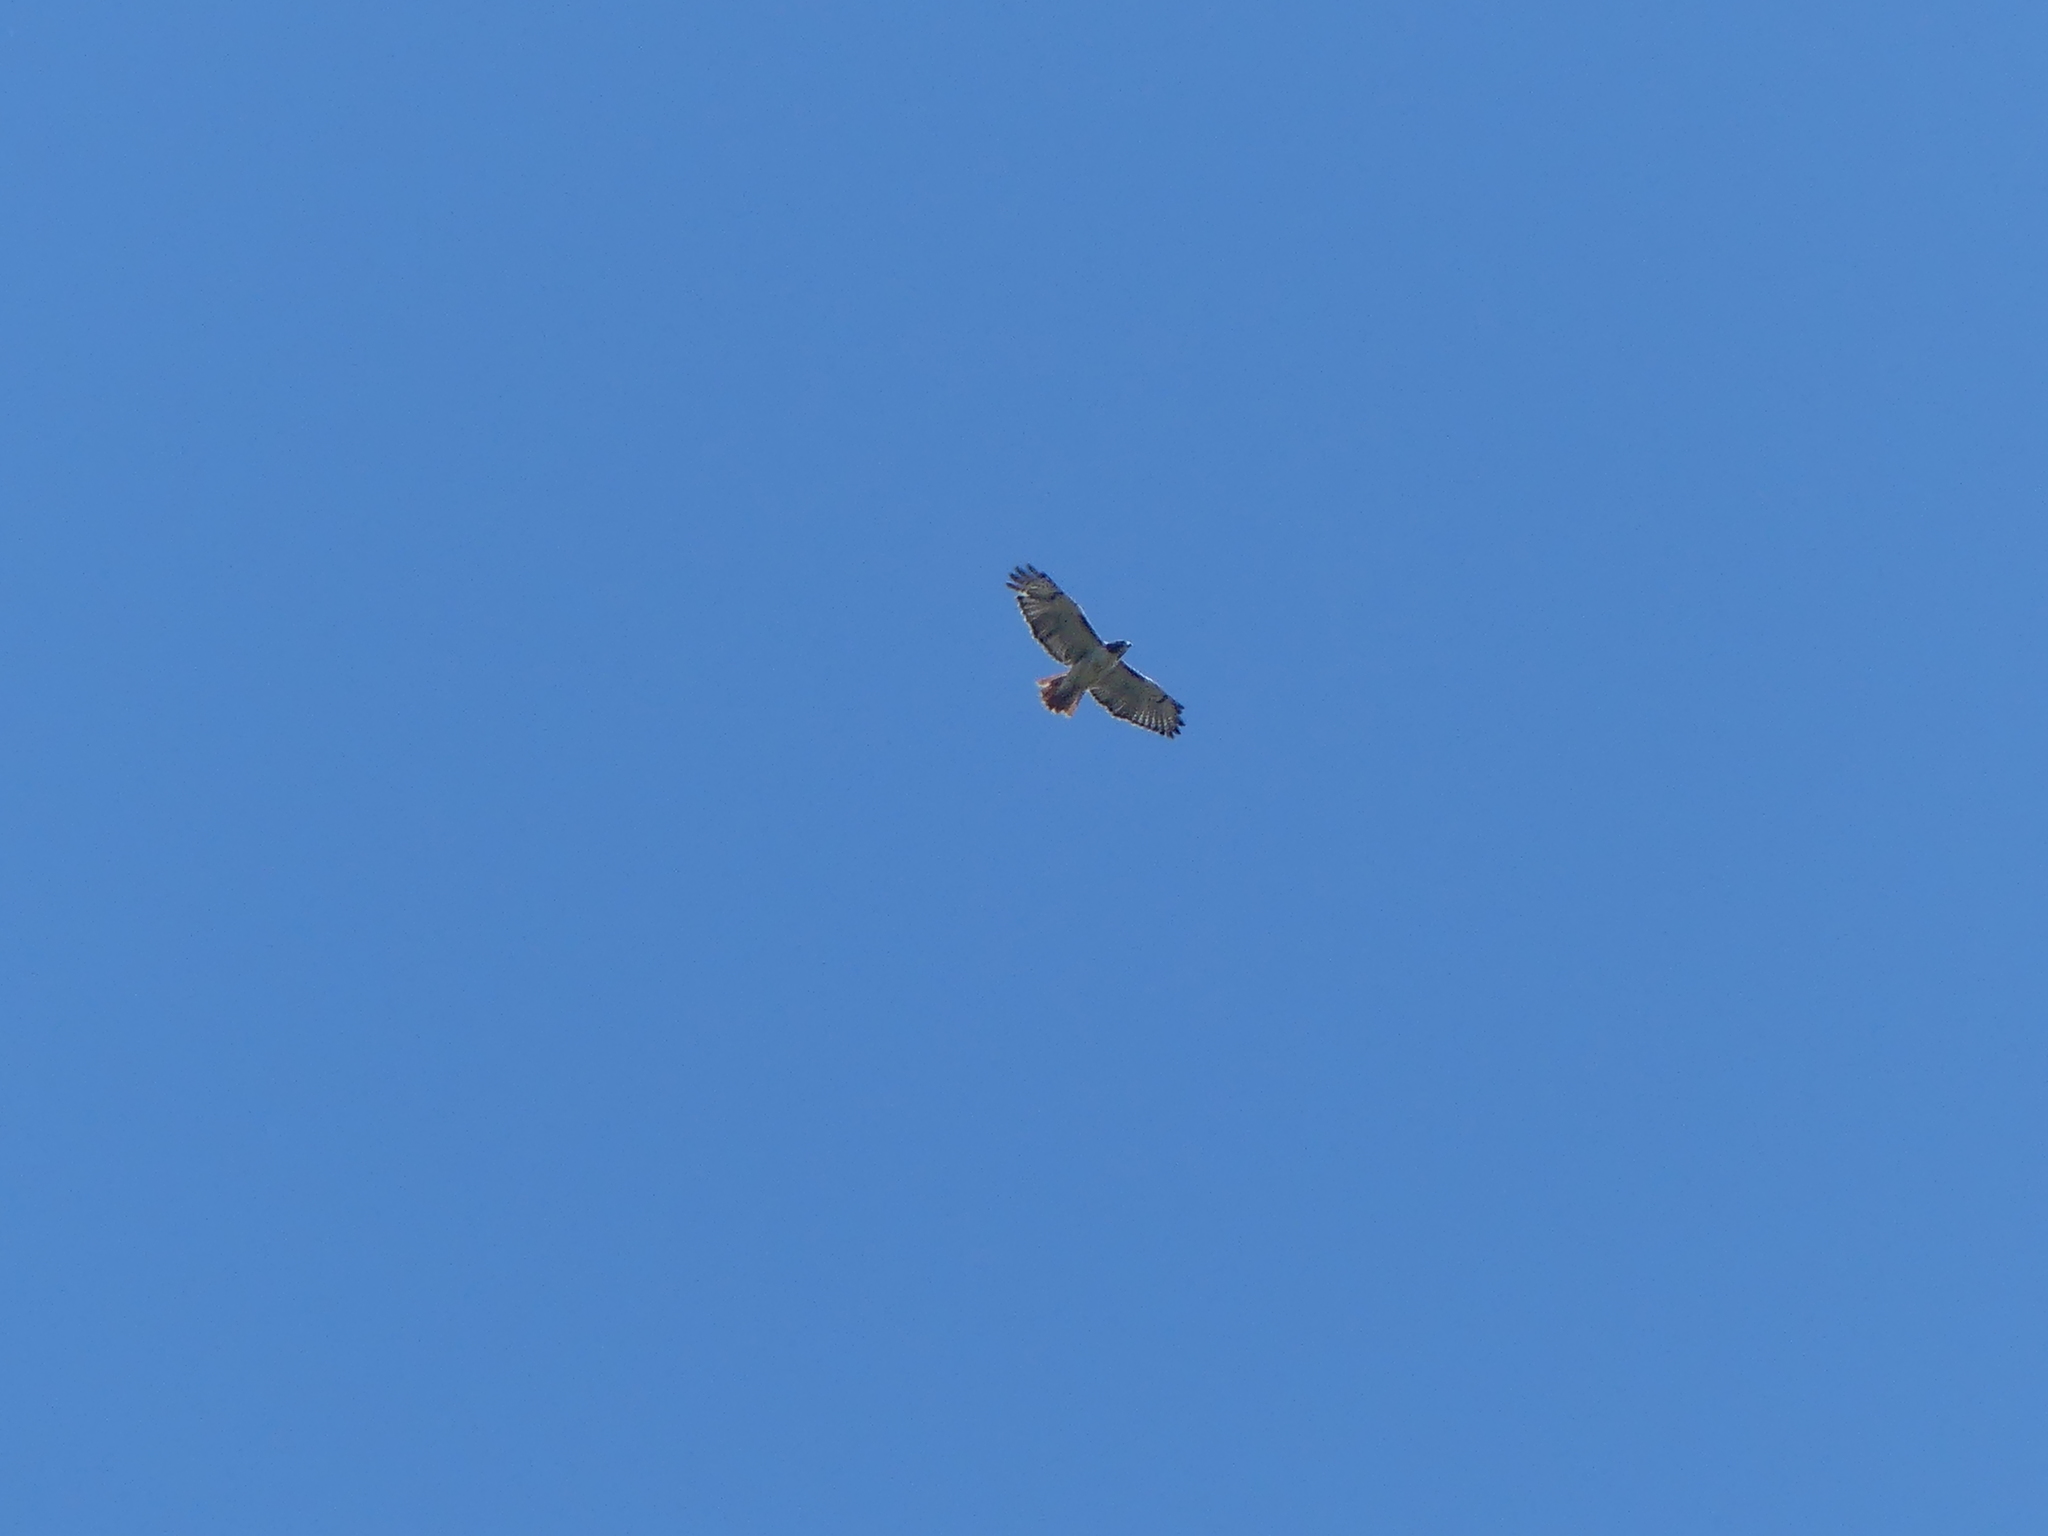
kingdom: Animalia
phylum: Chordata
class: Aves
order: Accipitriformes
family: Accipitridae
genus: Buteo
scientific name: Buteo jamaicensis
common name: Red-tailed hawk
